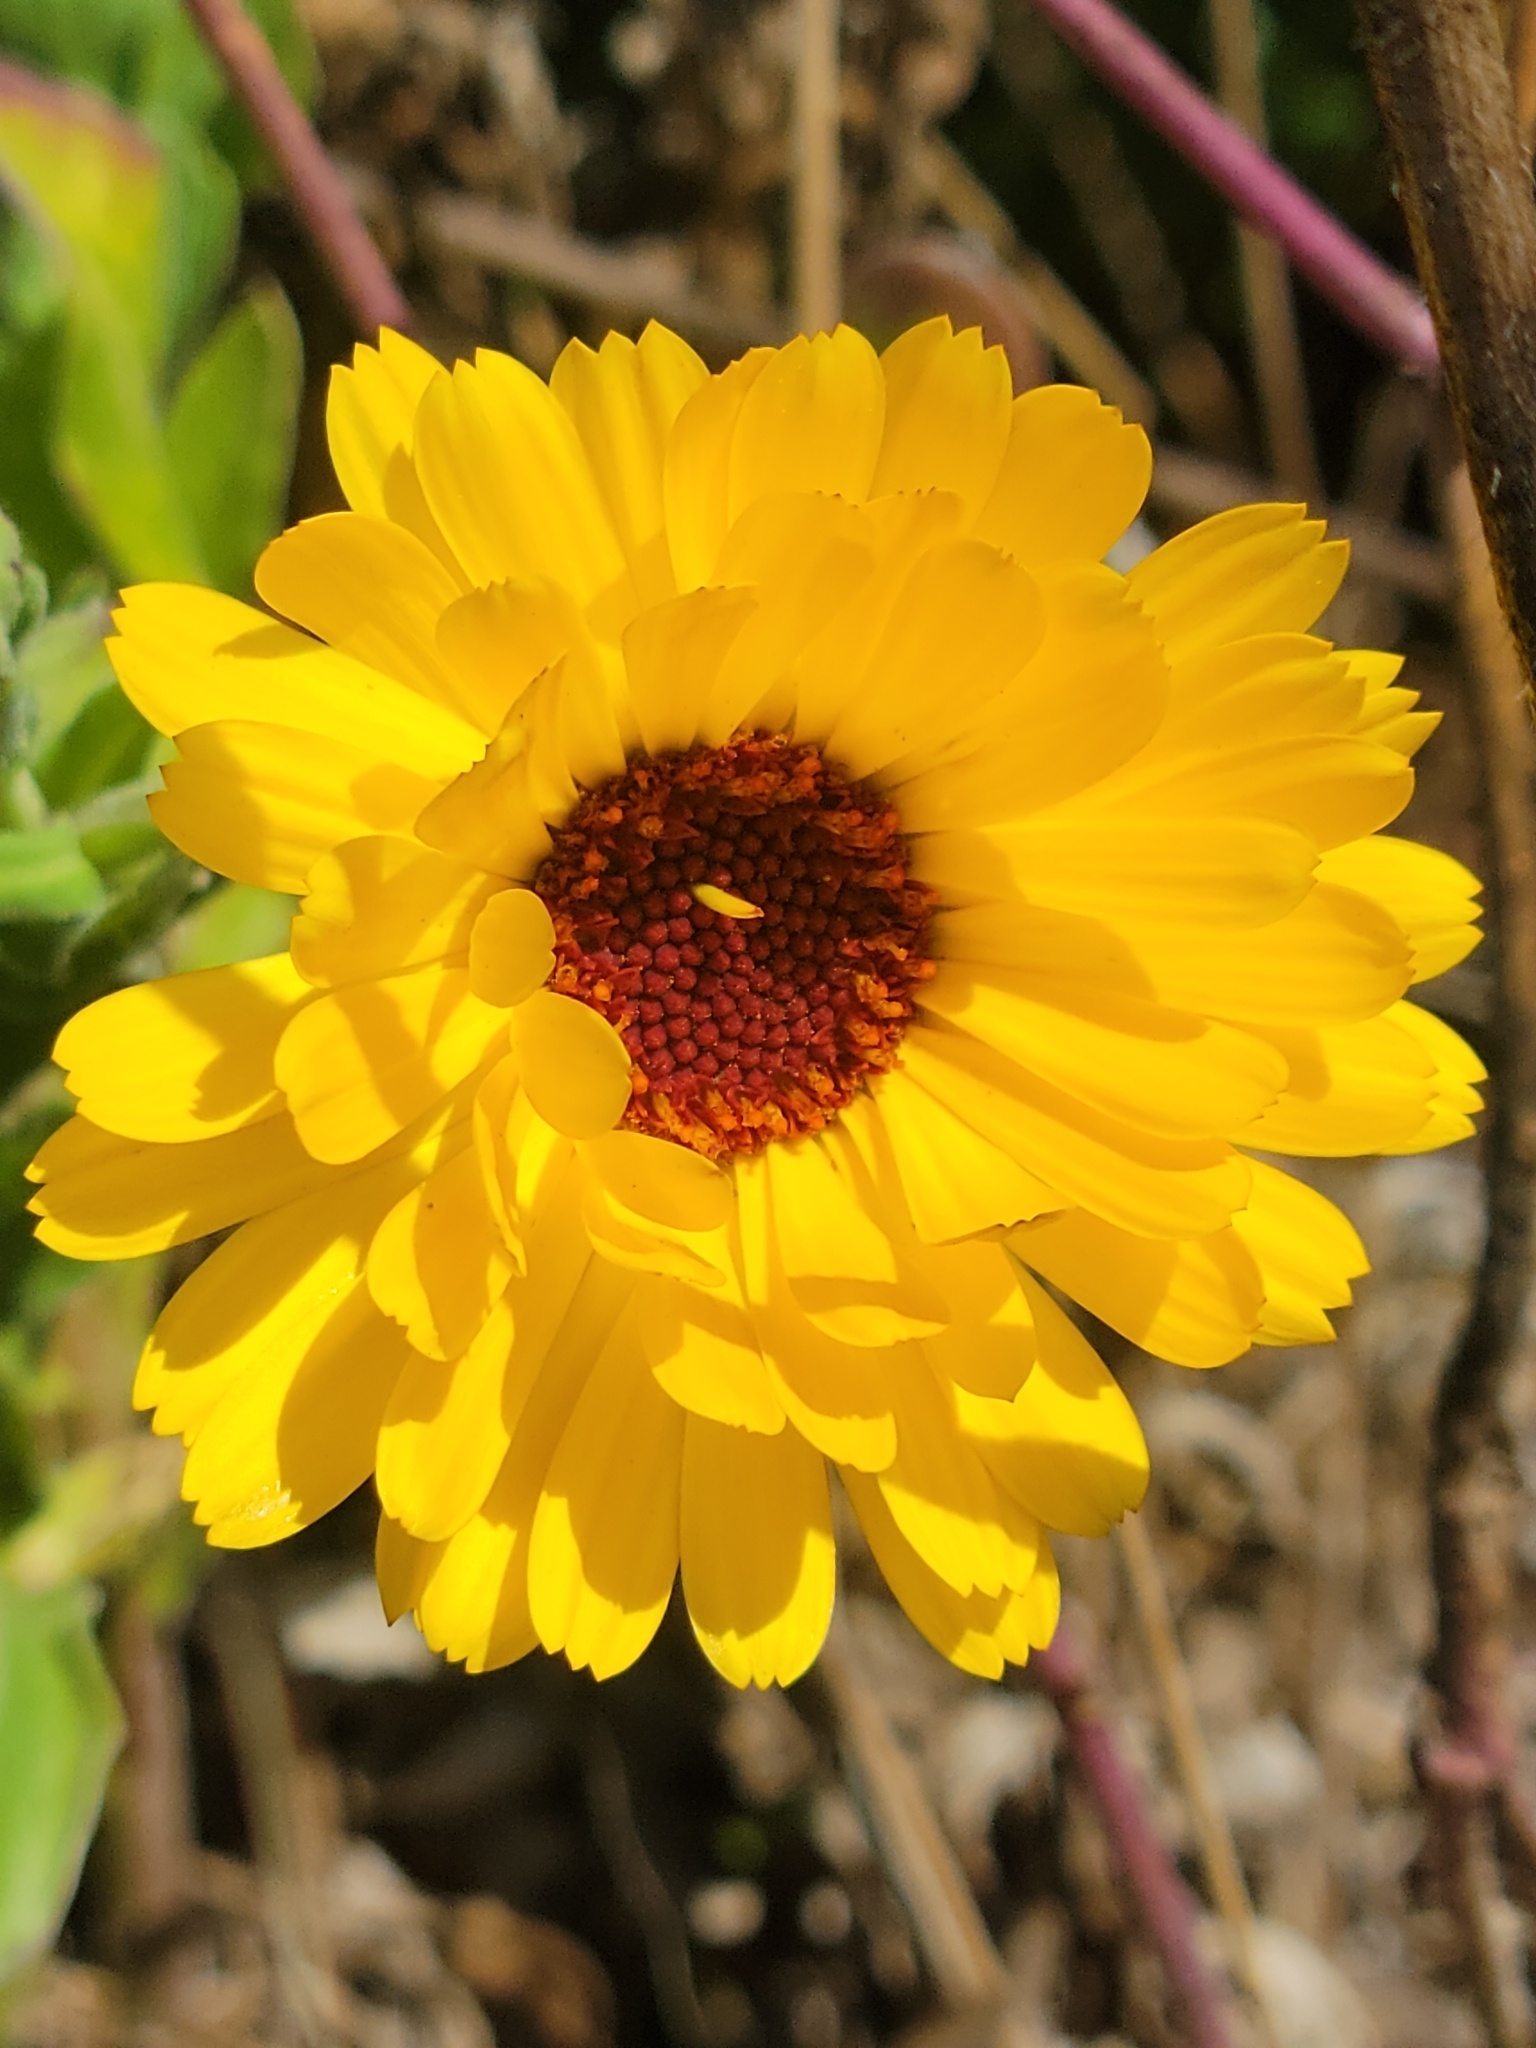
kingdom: Plantae
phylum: Tracheophyta
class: Magnoliopsida
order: Asterales
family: Asteraceae
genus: Calendula
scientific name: Calendula officinalis
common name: Pot marigold
